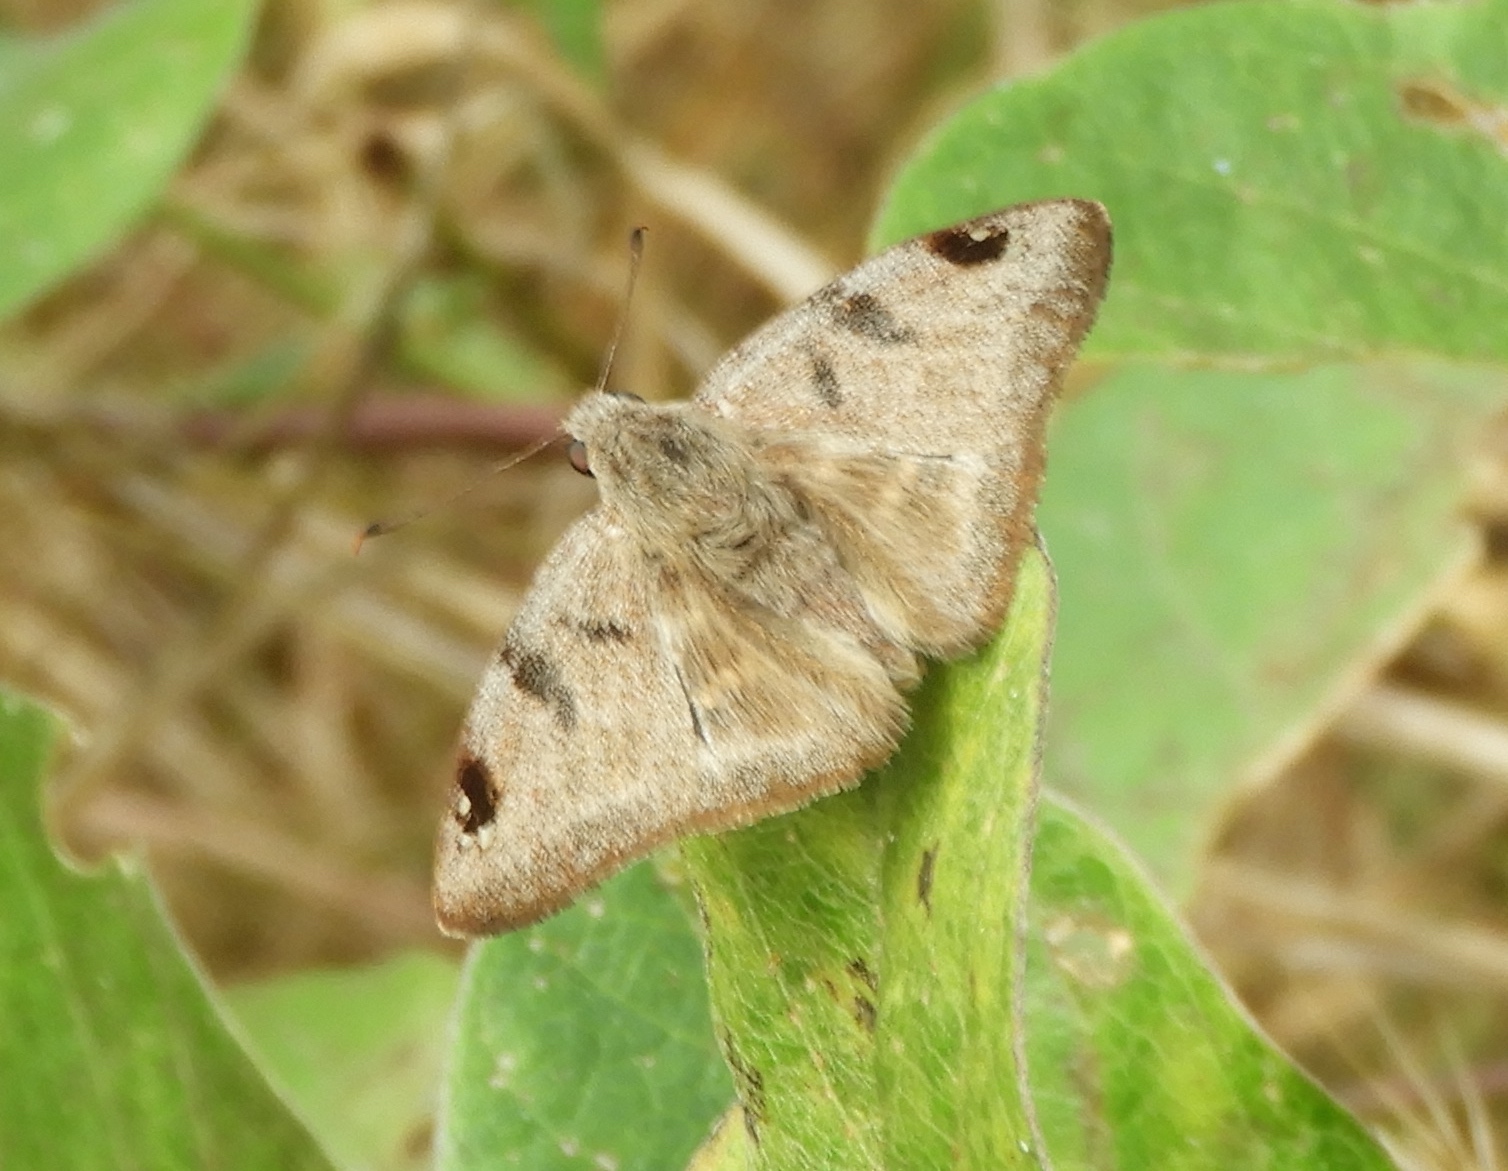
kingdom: Animalia
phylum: Arthropoda
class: Insecta
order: Lepidoptera
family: Hesperiidae
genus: Arteurotia
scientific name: Arteurotia tractipennis
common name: Starred skipper
